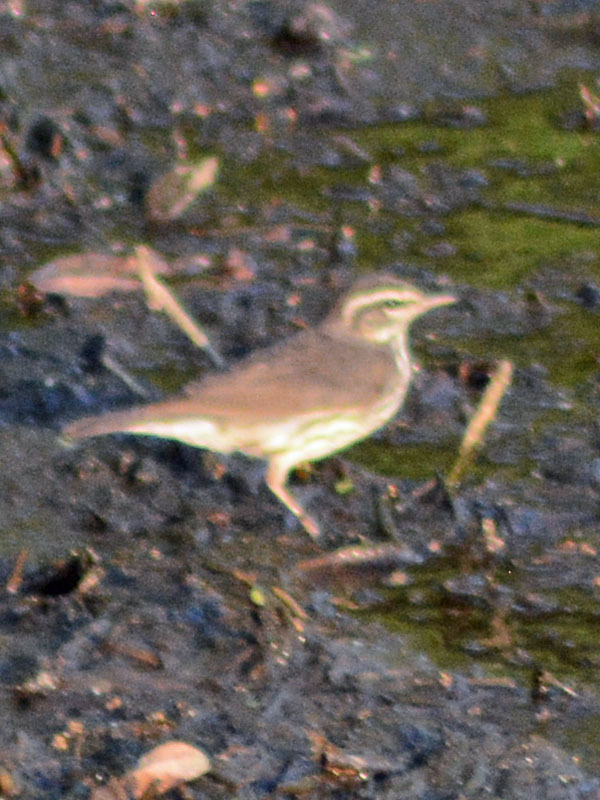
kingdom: Animalia
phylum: Chordata
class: Aves
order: Passeriformes
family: Parulidae
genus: Parkesia
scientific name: Parkesia noveboracensis
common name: Northern waterthrush
